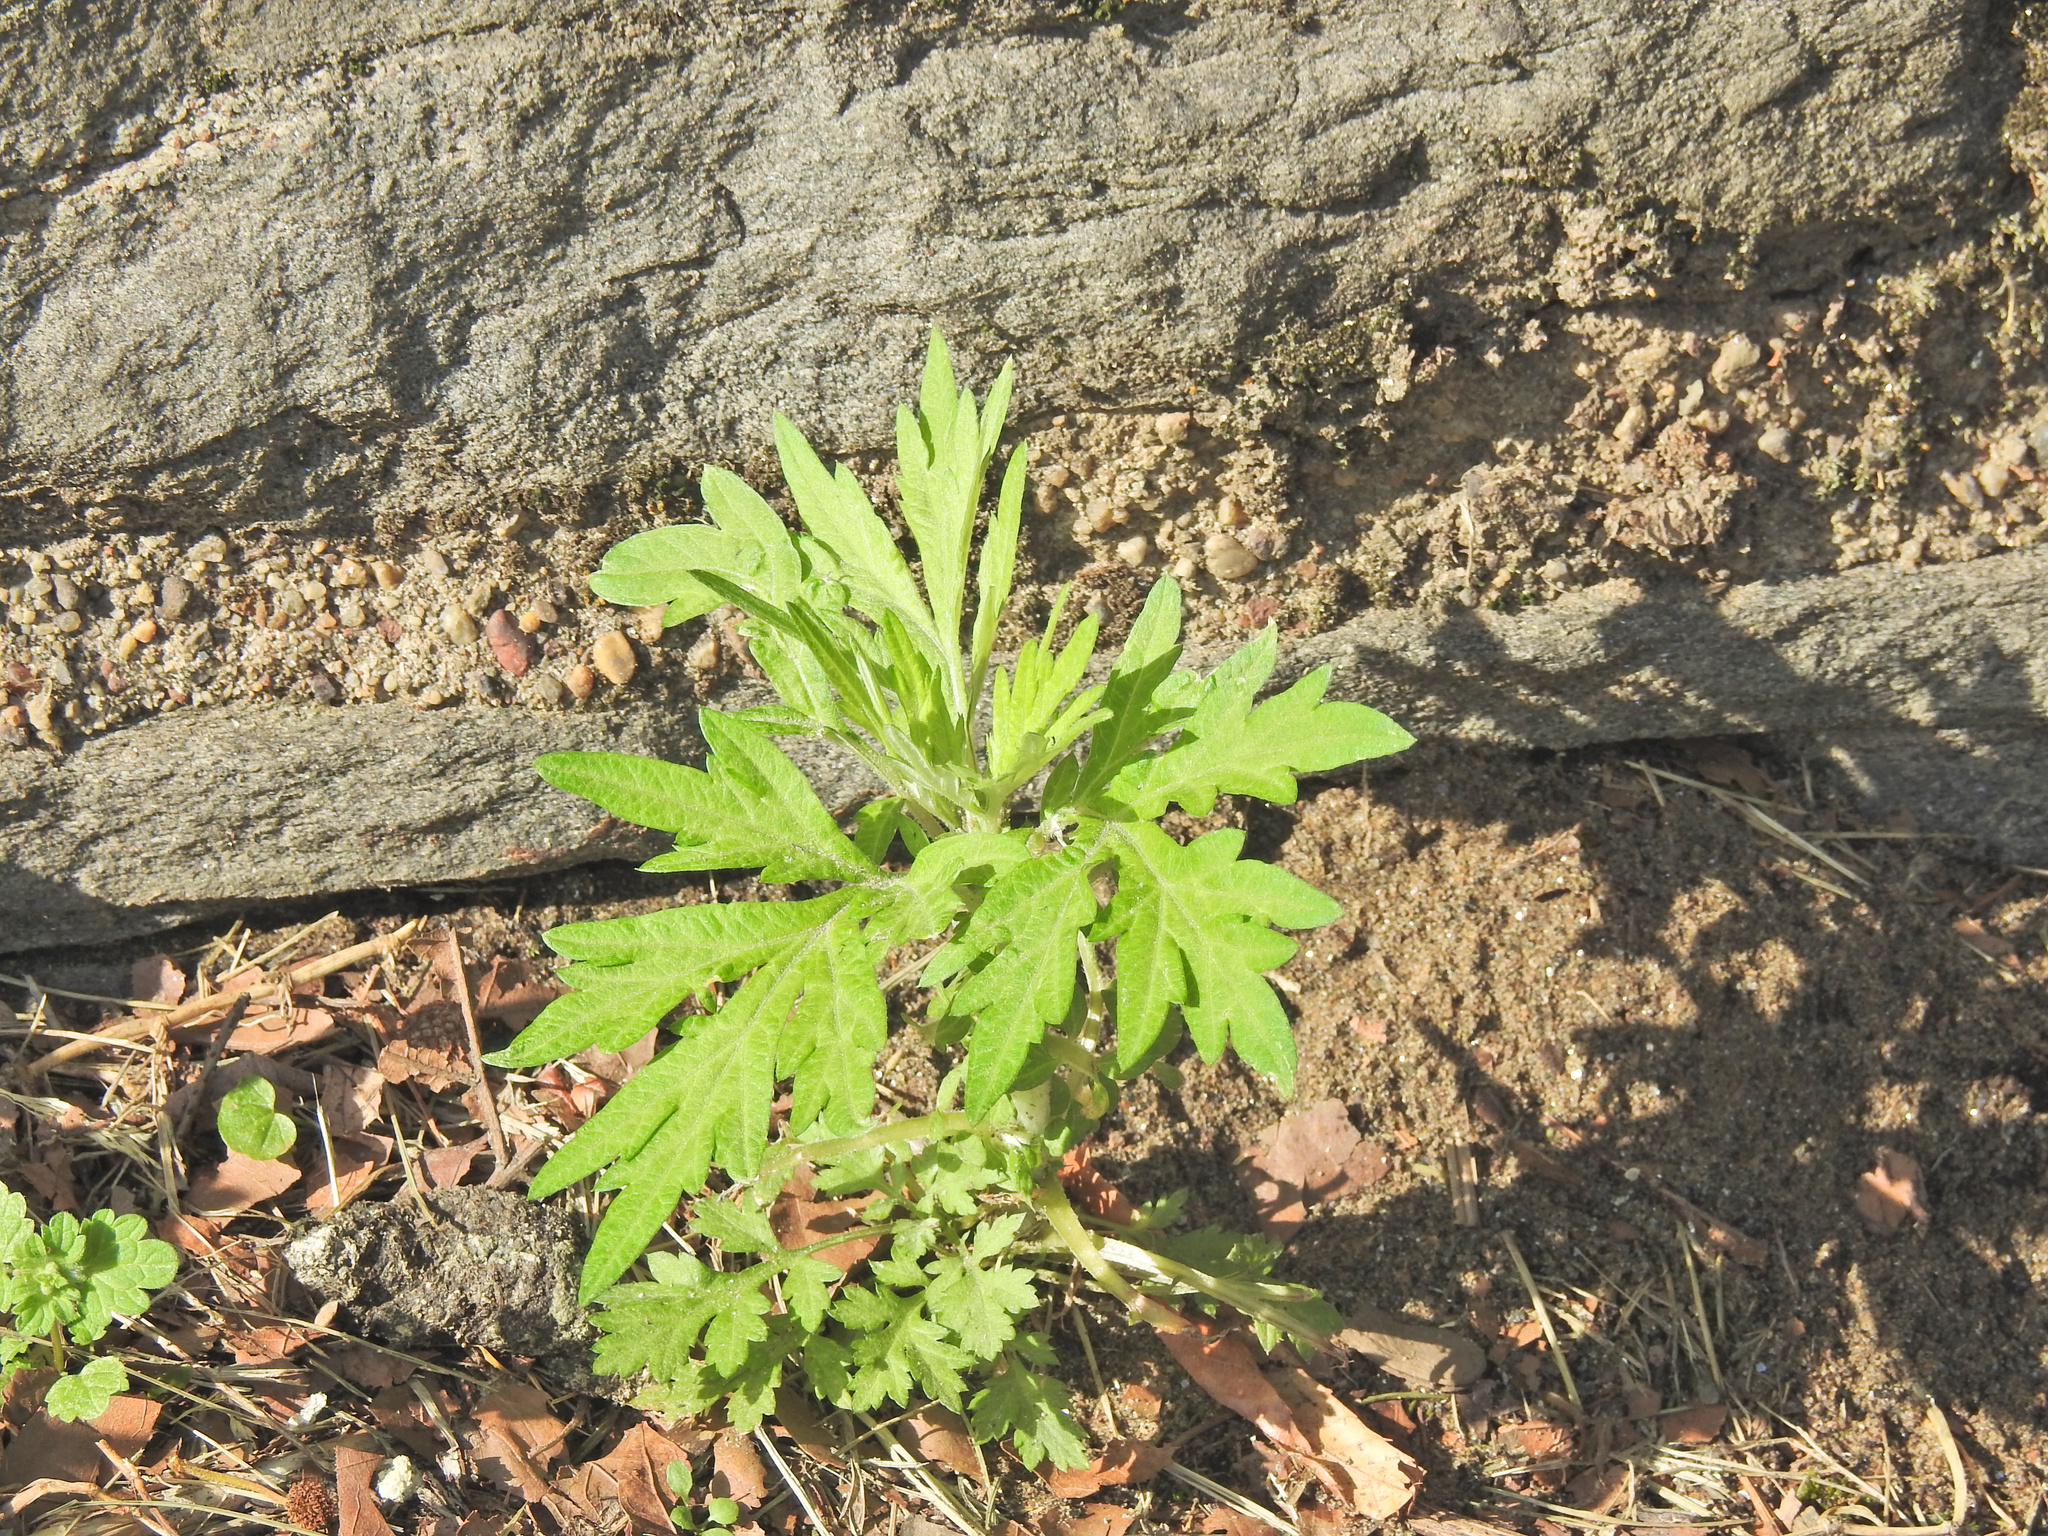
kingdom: Plantae
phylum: Tracheophyta
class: Magnoliopsida
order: Asterales
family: Asteraceae
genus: Artemisia
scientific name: Artemisia vulgaris
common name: Mugwort
